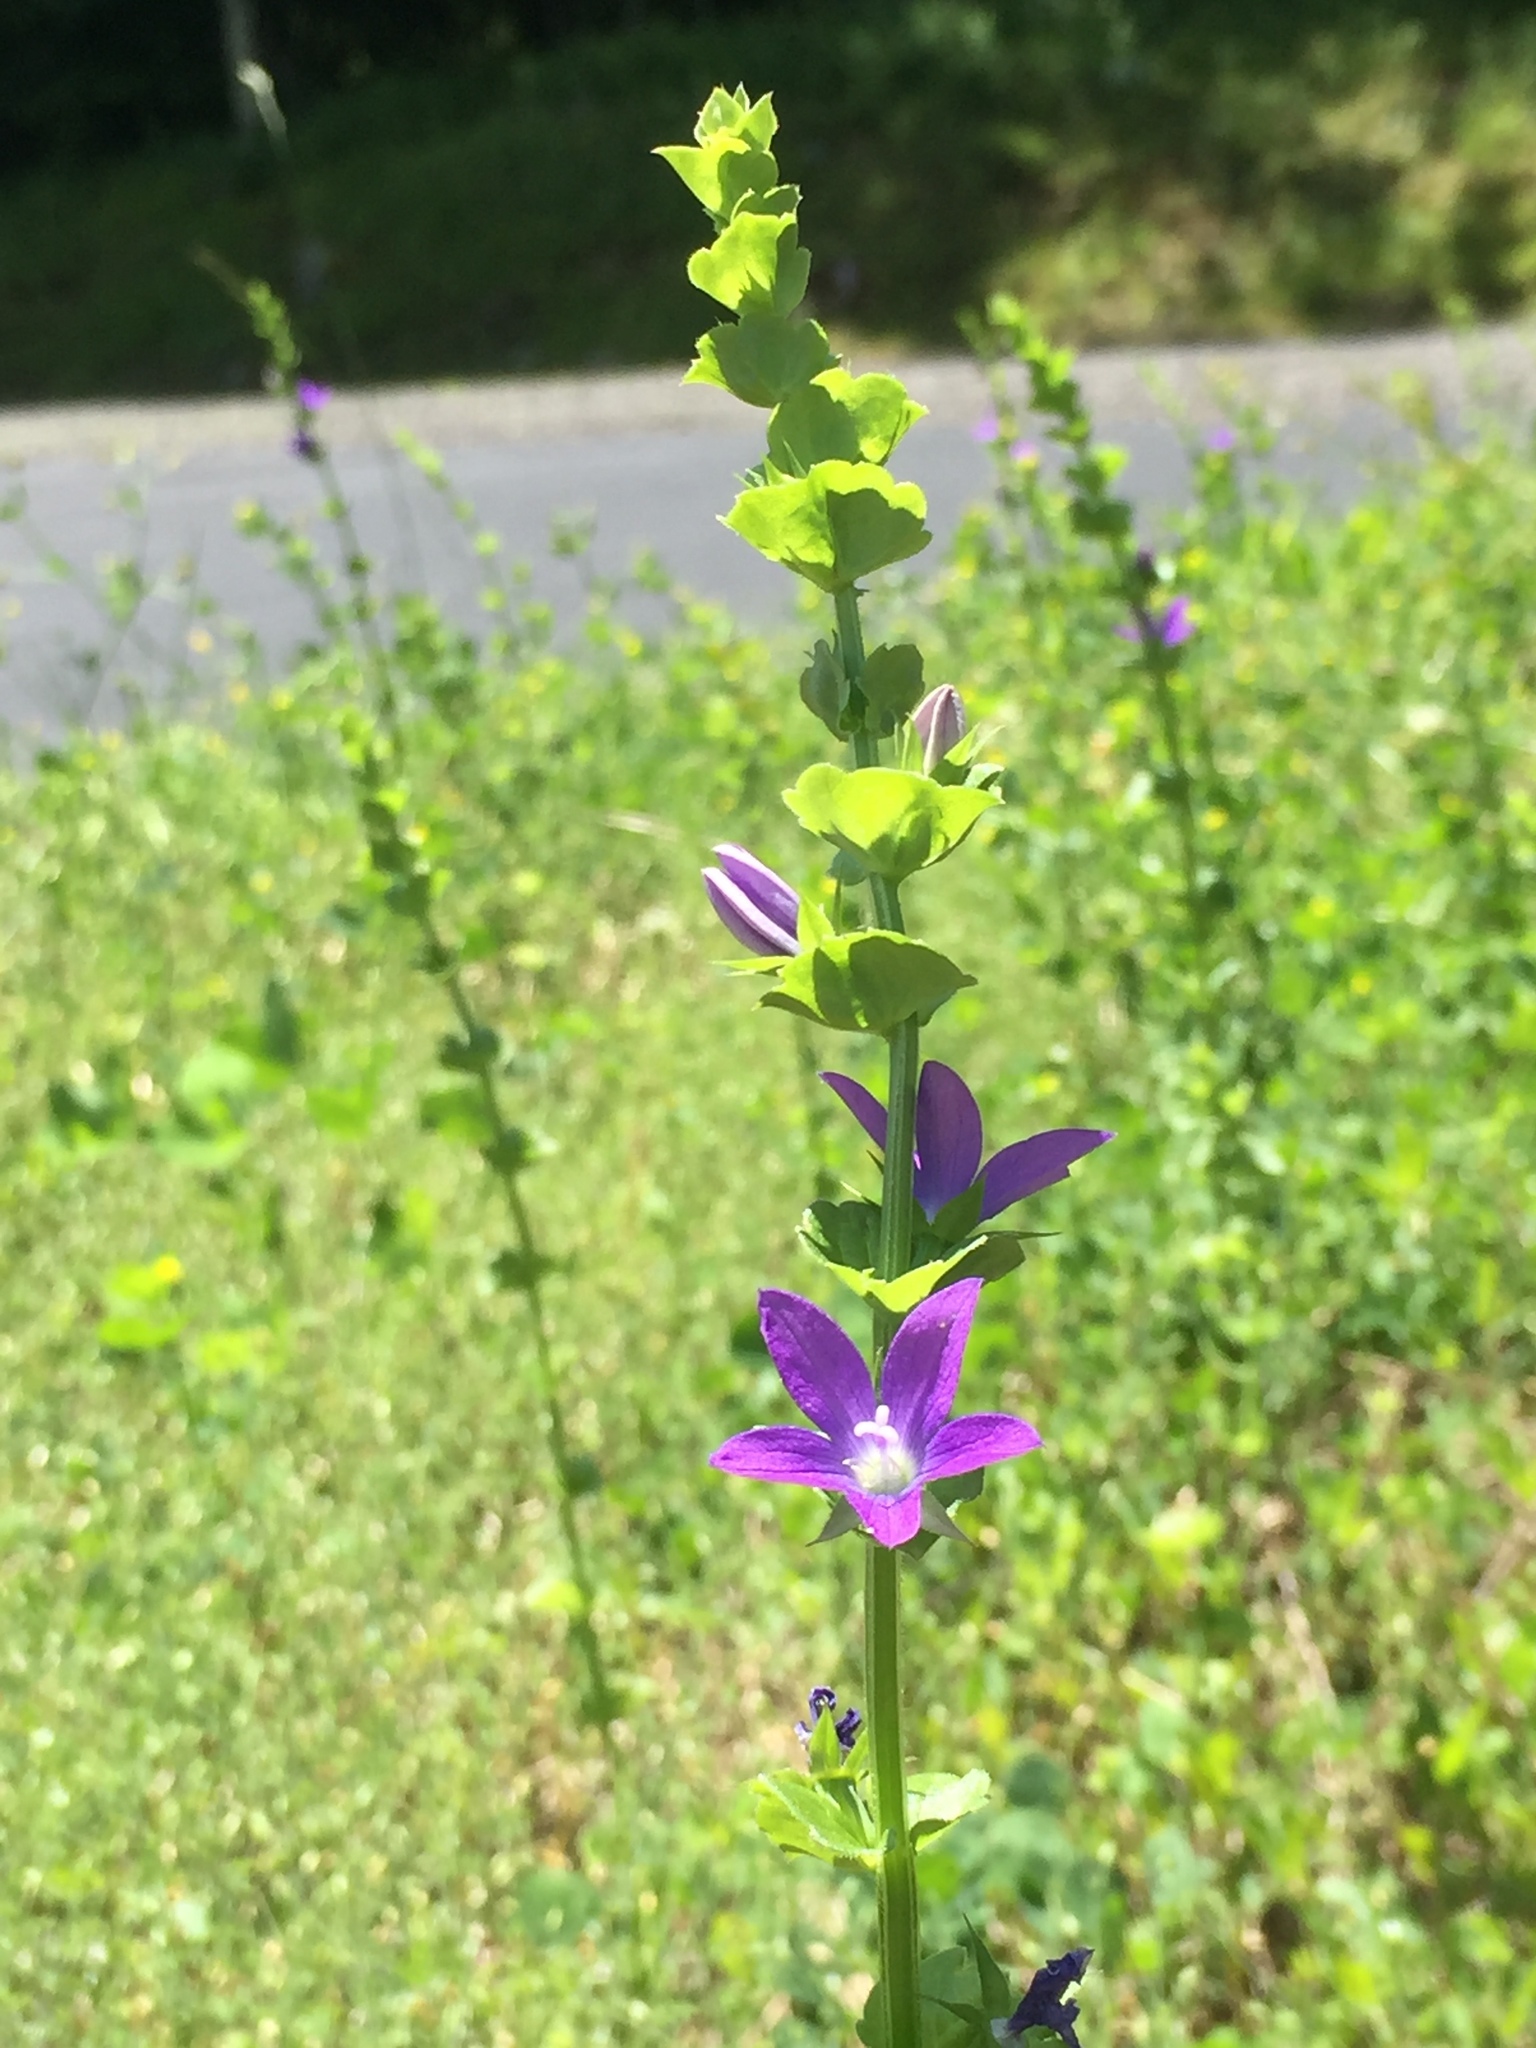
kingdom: Plantae
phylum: Tracheophyta
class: Magnoliopsida
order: Asterales
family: Campanulaceae
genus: Triodanis
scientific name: Triodanis perfoliata
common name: Clasping venus' looking-glass
